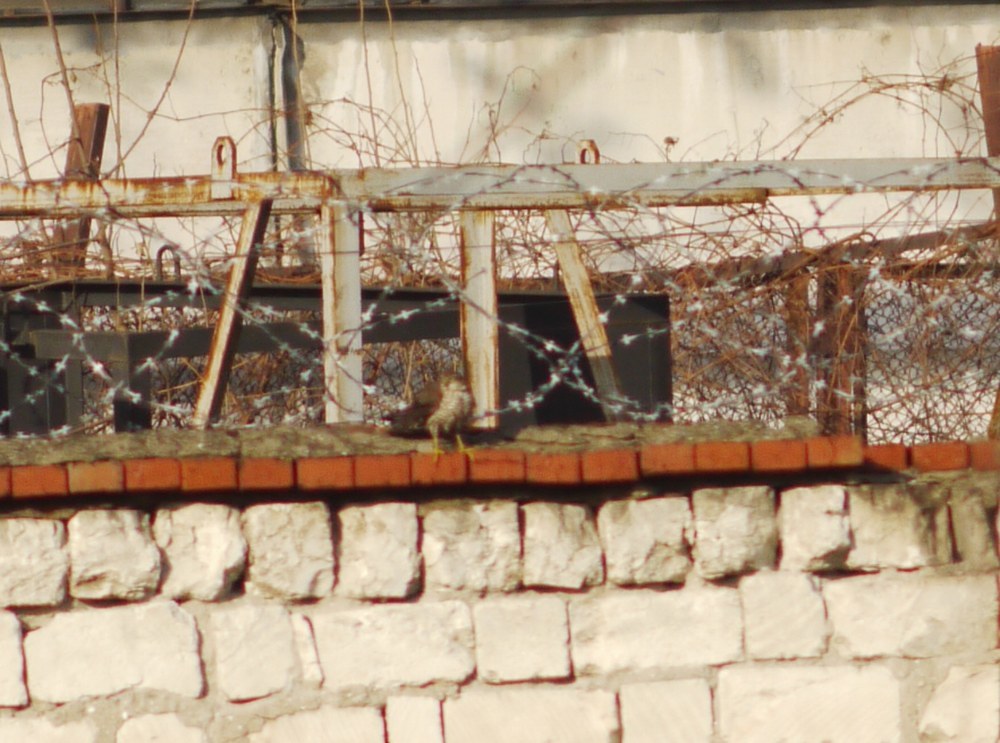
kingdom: Animalia
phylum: Chordata
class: Aves
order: Accipitriformes
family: Accipitridae
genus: Accipiter
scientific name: Accipiter nisus
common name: Eurasian sparrowhawk
